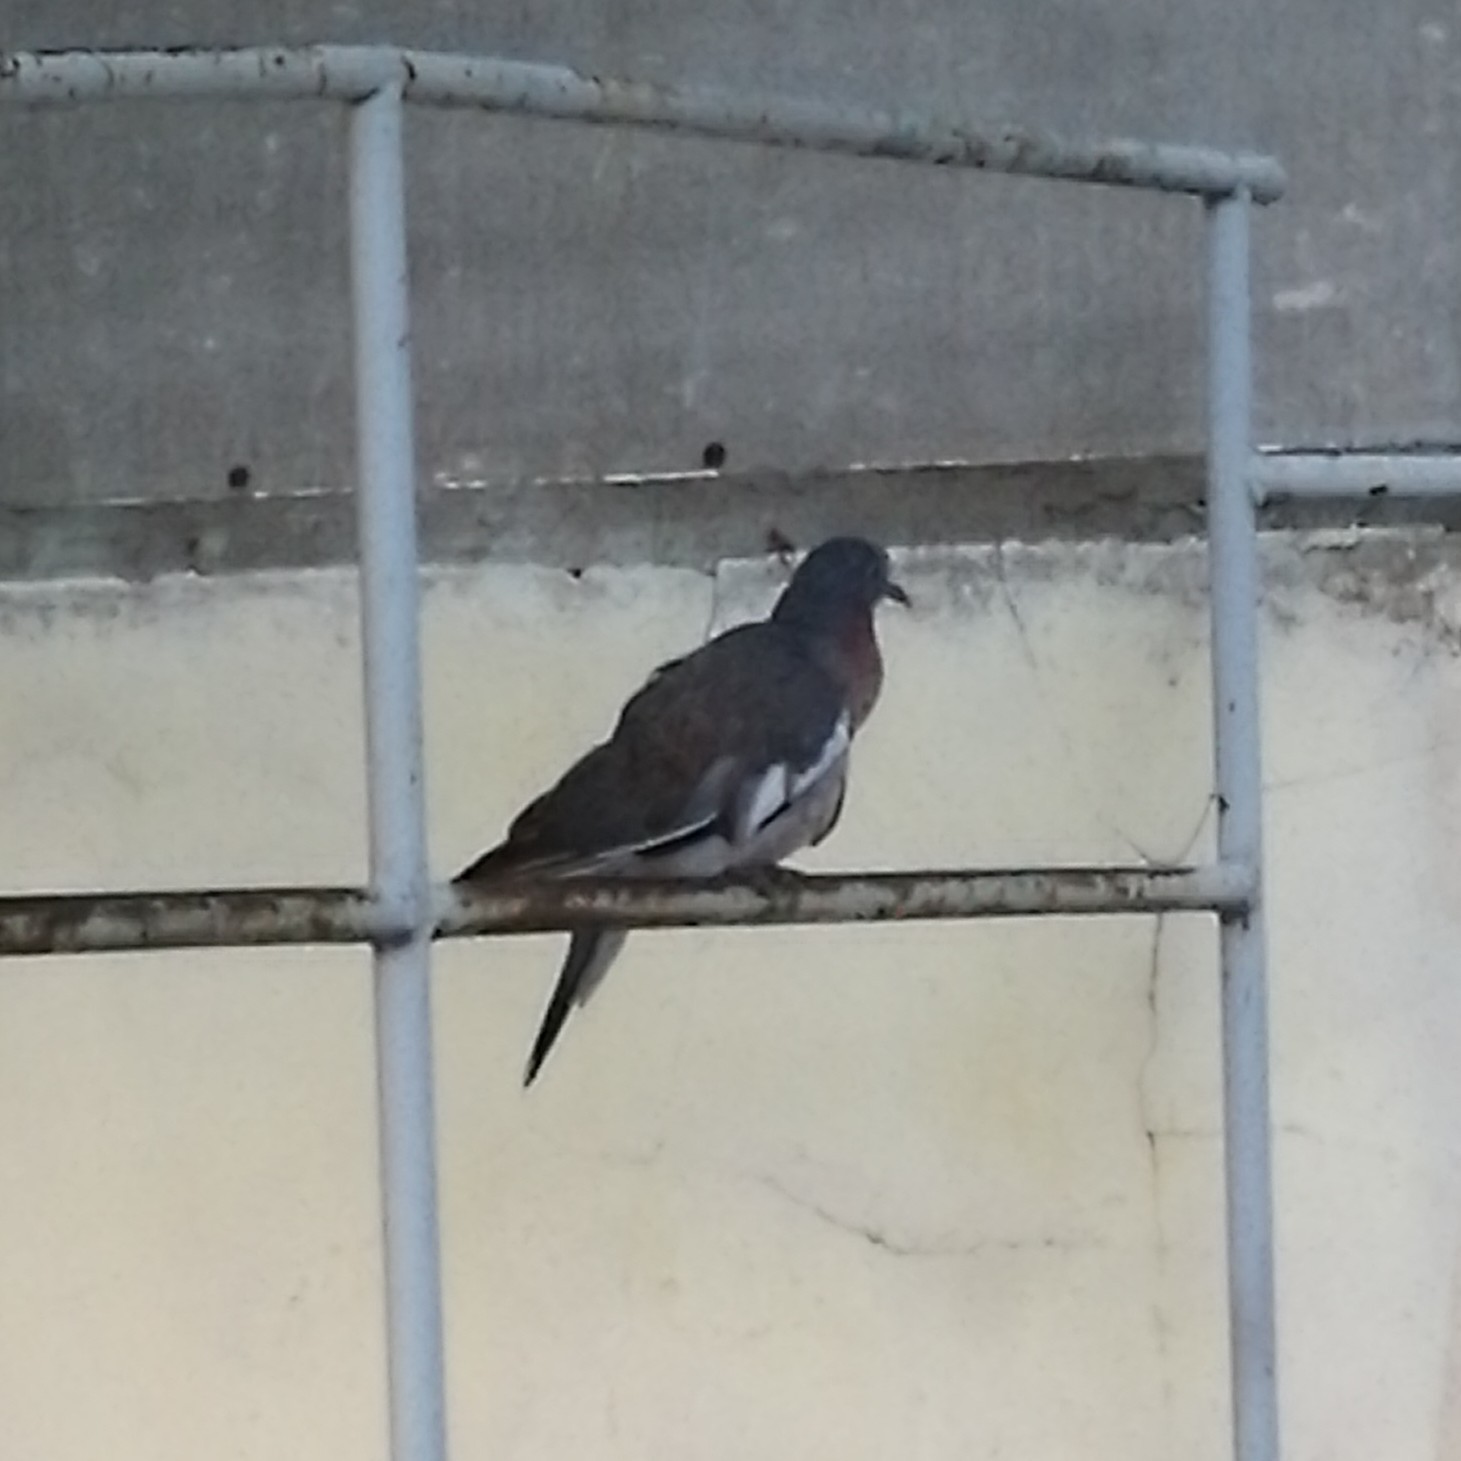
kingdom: Animalia
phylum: Chordata
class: Aves
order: Columbiformes
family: Columbidae
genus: Columba
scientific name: Columba palumbus
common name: Common wood pigeon
